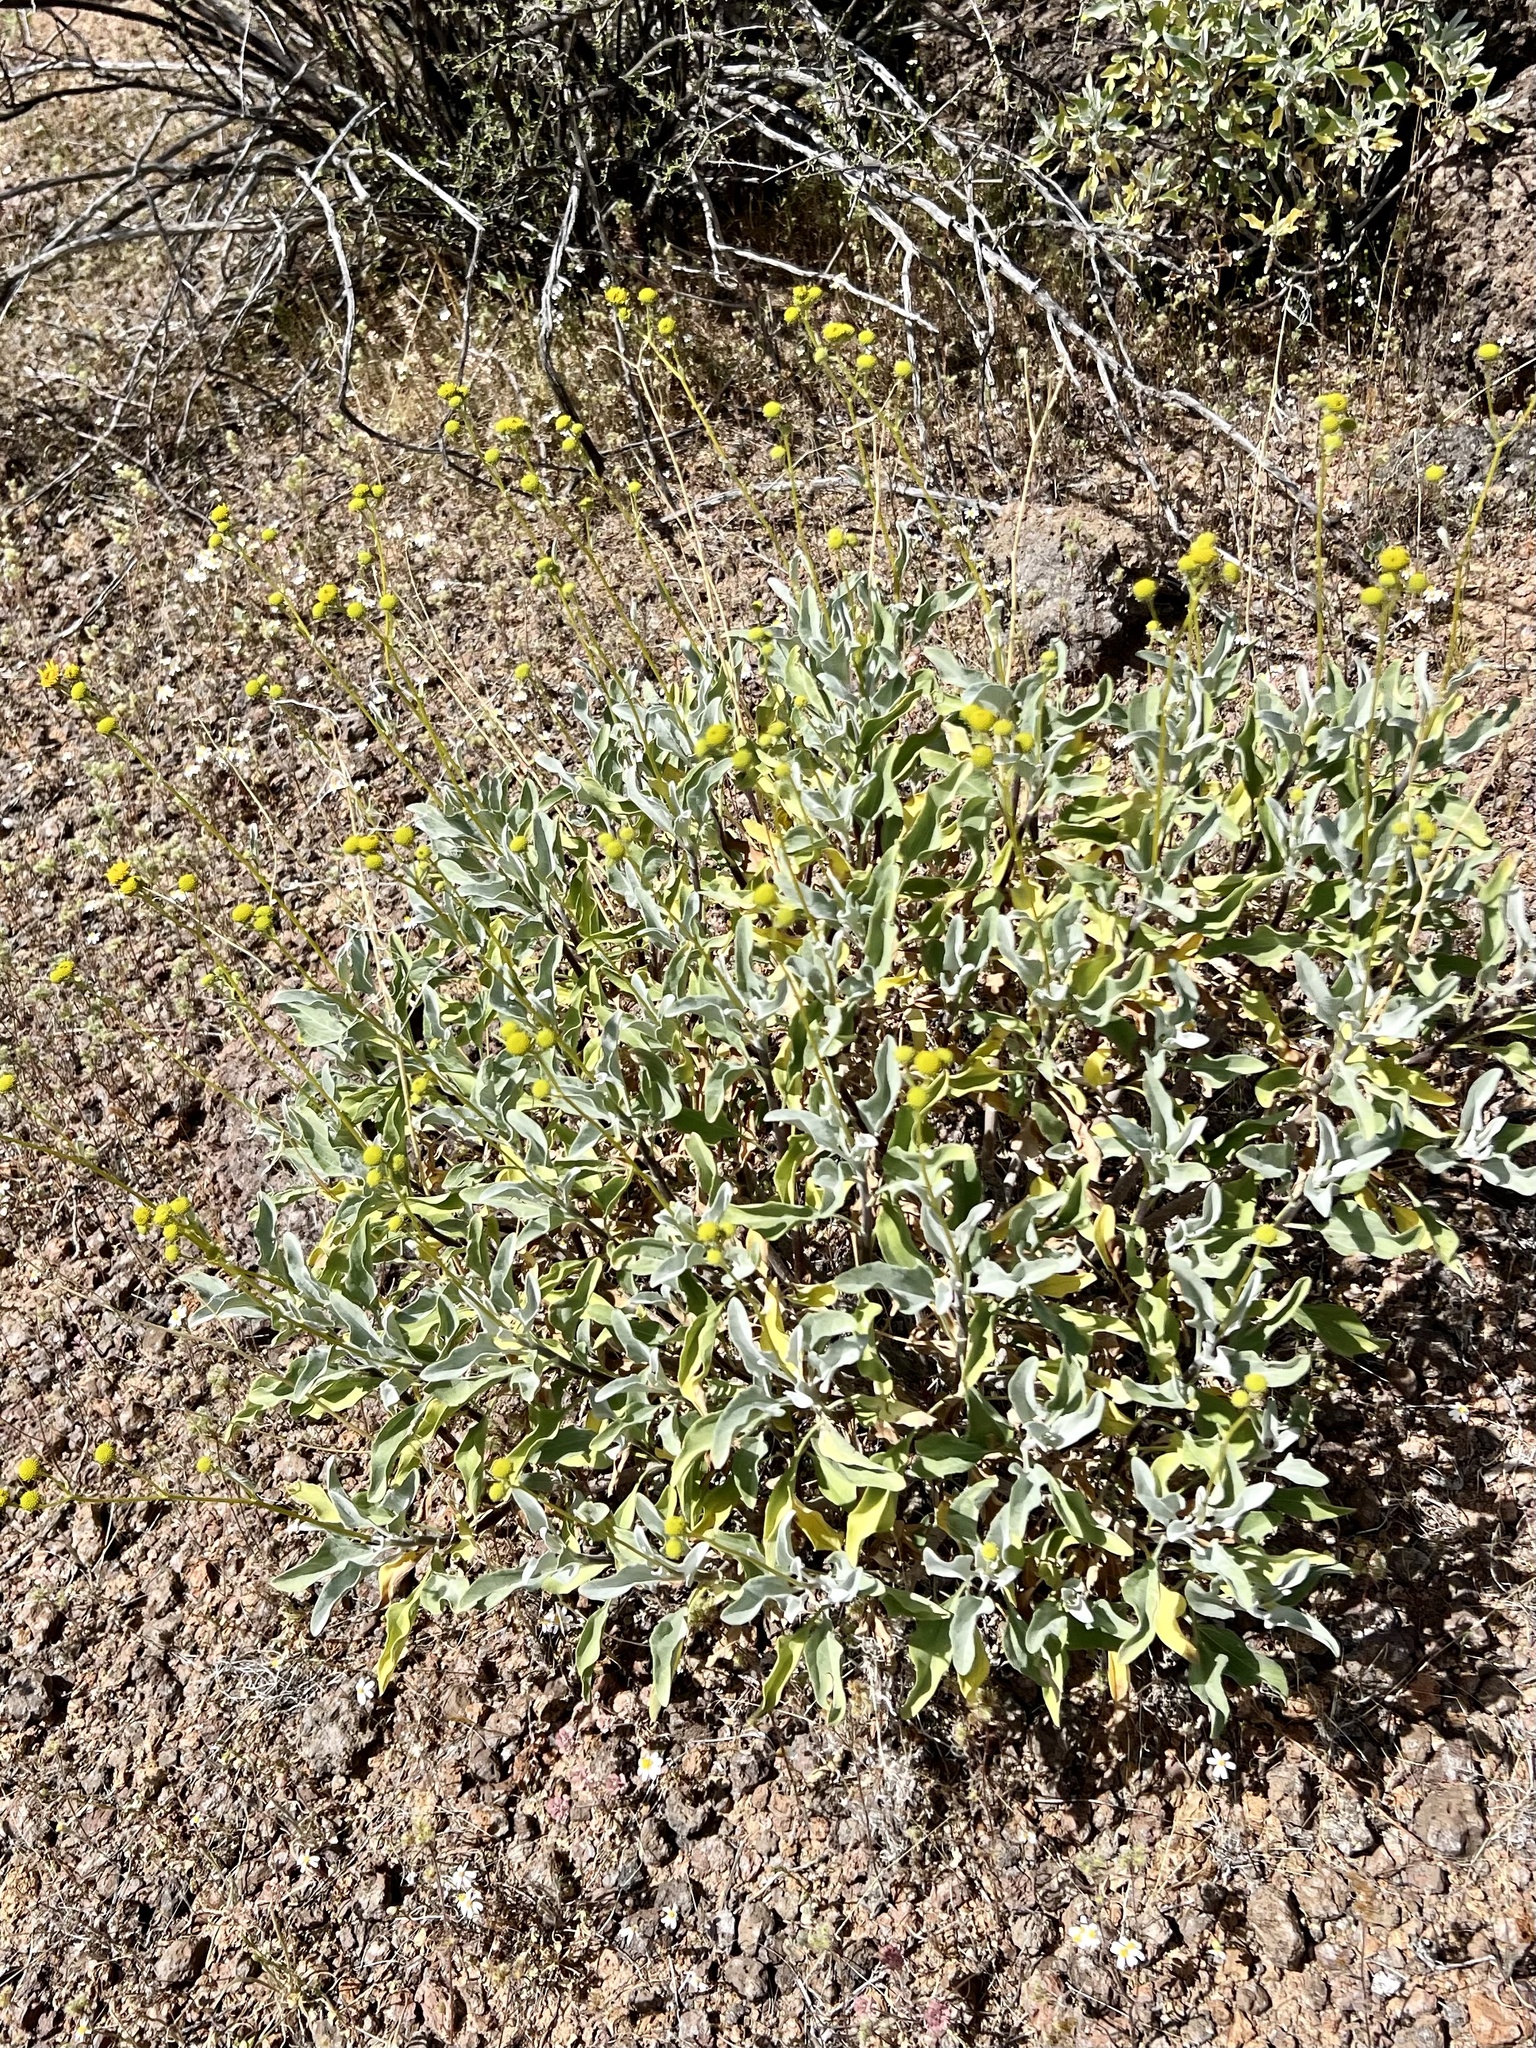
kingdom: Plantae
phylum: Tracheophyta
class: Magnoliopsida
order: Asterales
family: Asteraceae
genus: Encelia
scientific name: Encelia farinosa
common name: Brittlebush
